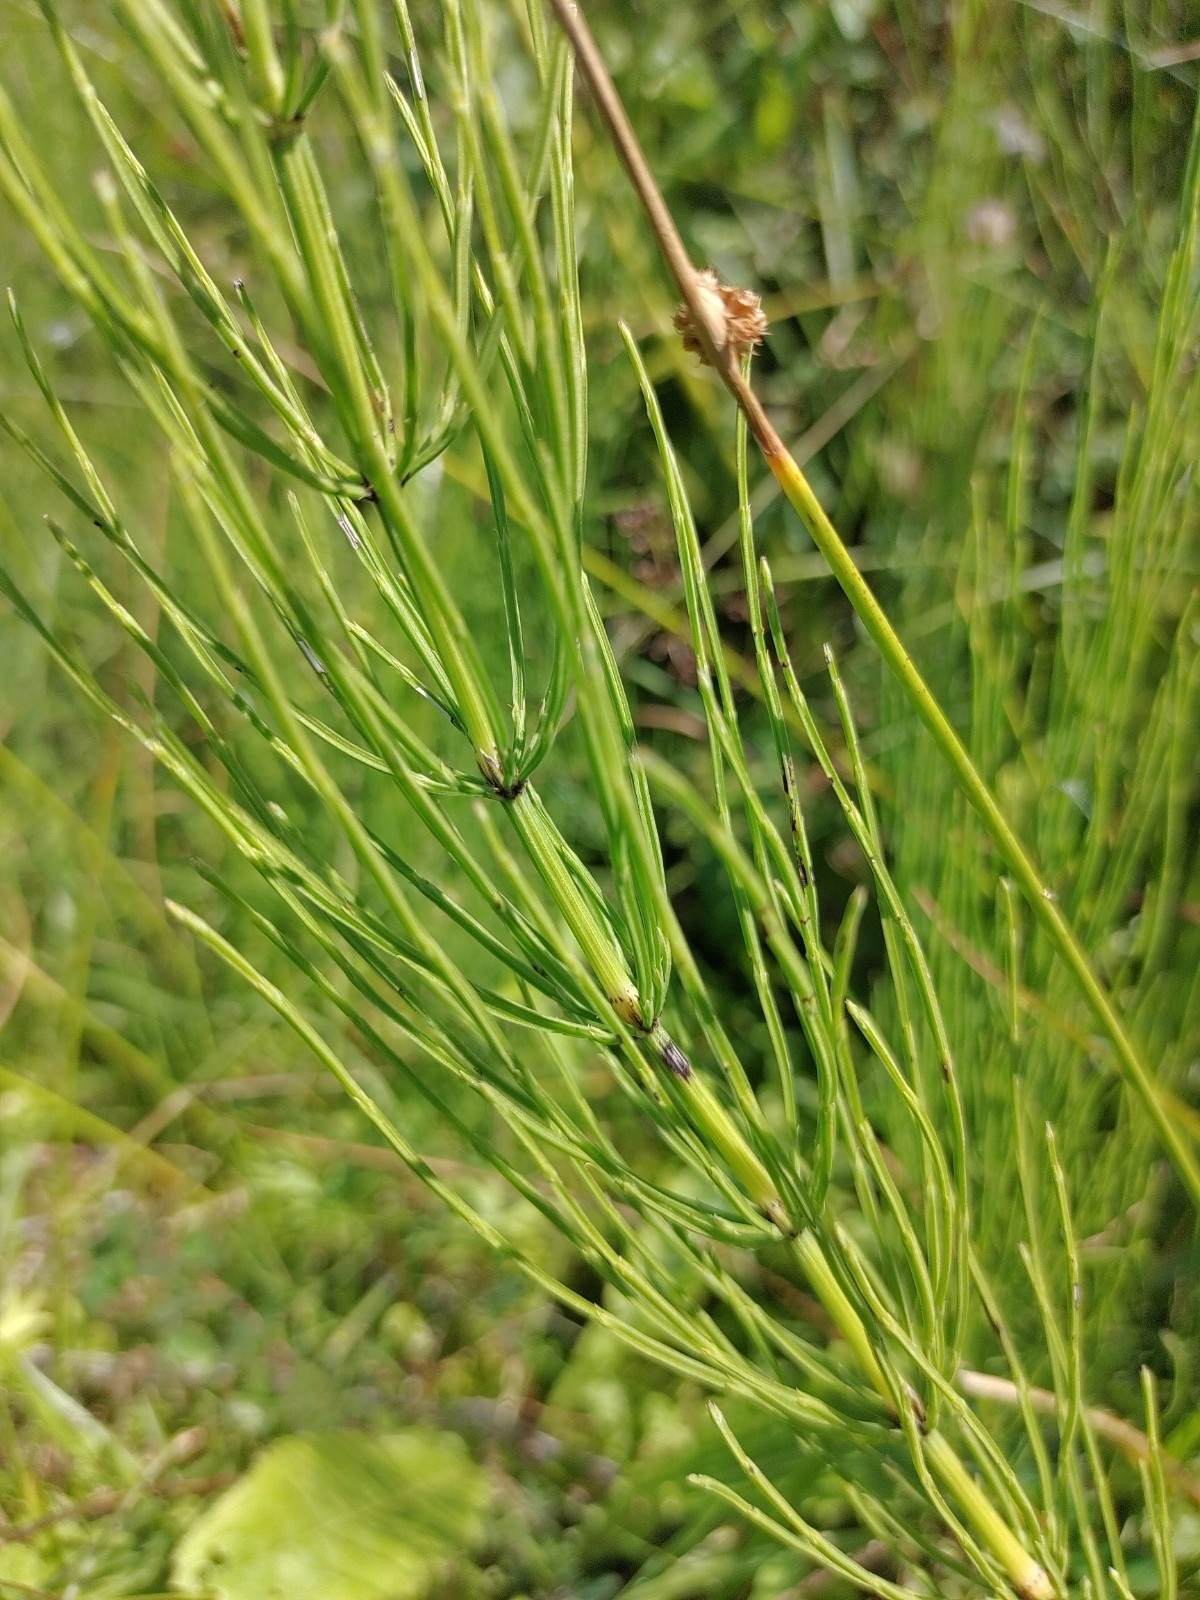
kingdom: Plantae
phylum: Tracheophyta
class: Polypodiopsida
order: Equisetales
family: Equisetaceae
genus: Equisetum
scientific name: Equisetum arvense
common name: Field horsetail
